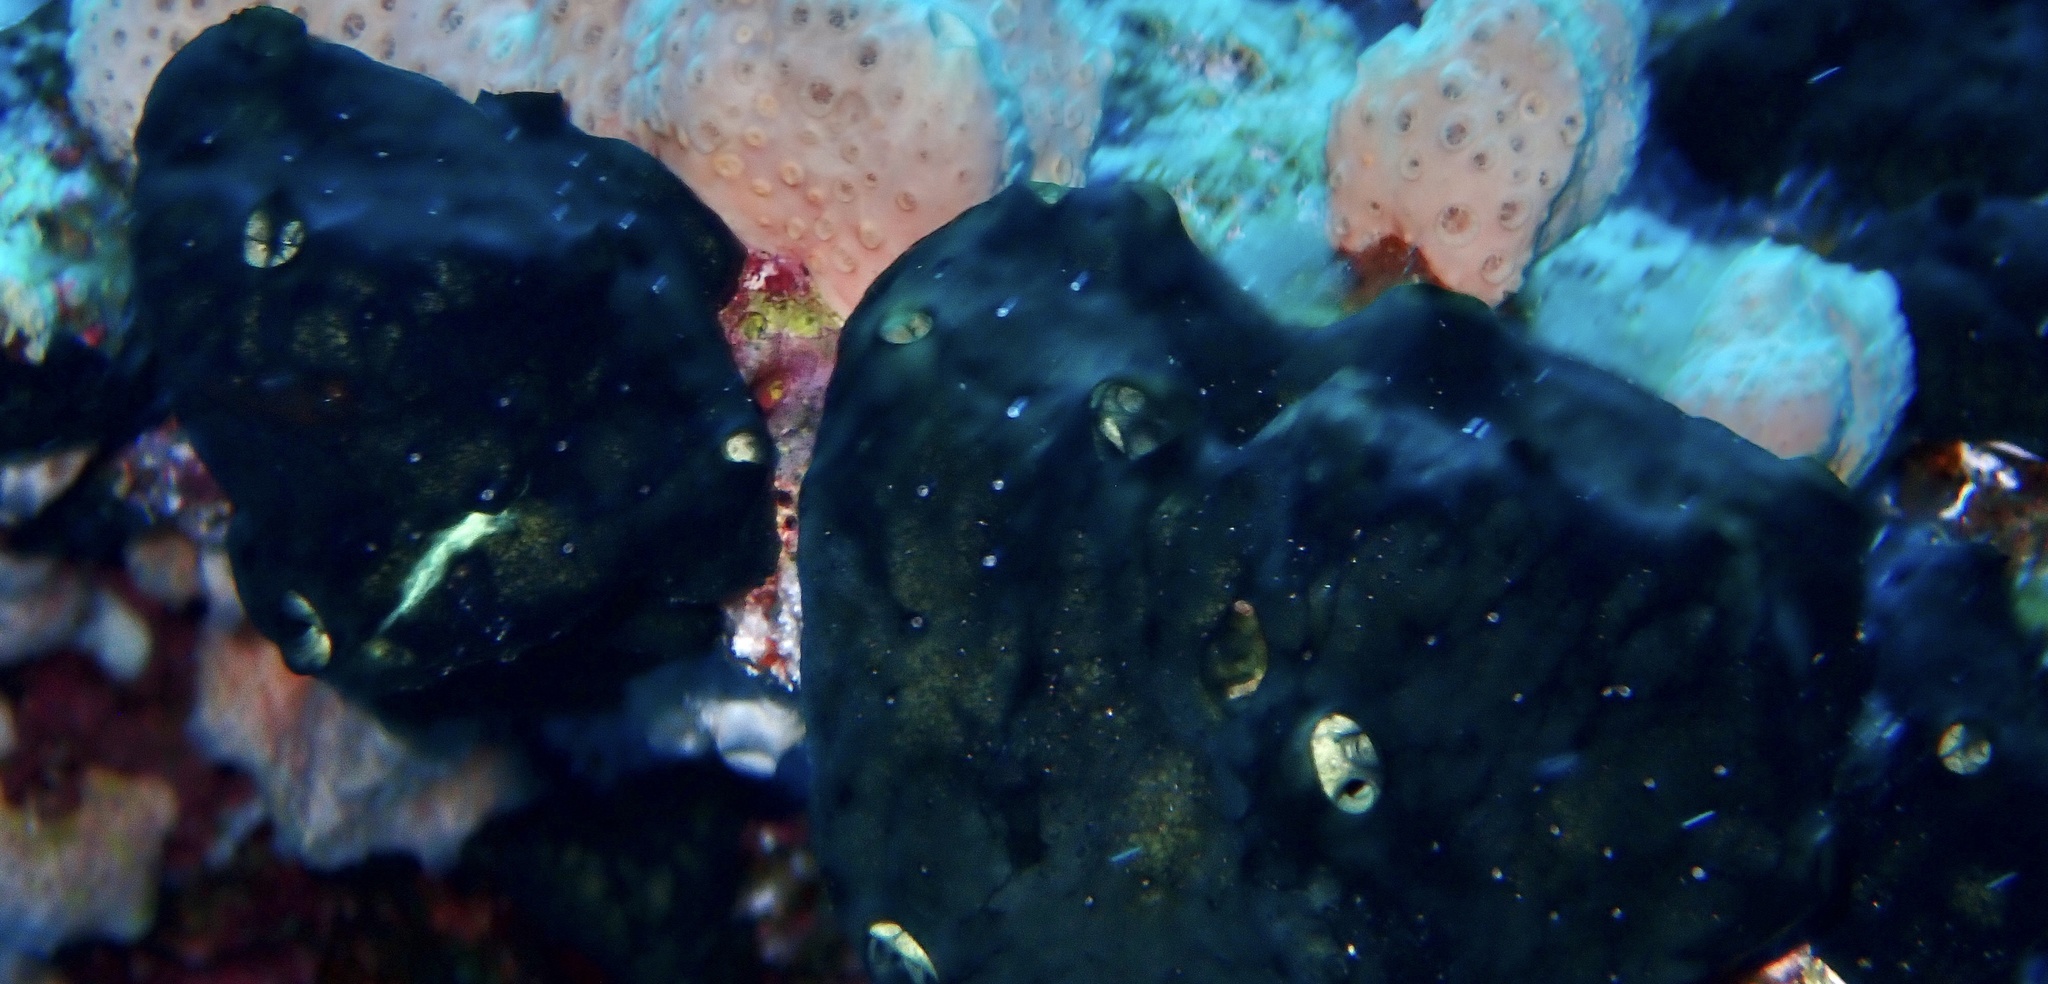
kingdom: Animalia
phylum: Porifera
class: Demospongiae
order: Poecilosclerida
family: Hymedesmiidae
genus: Hemimycale
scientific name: Hemimycale arabica
